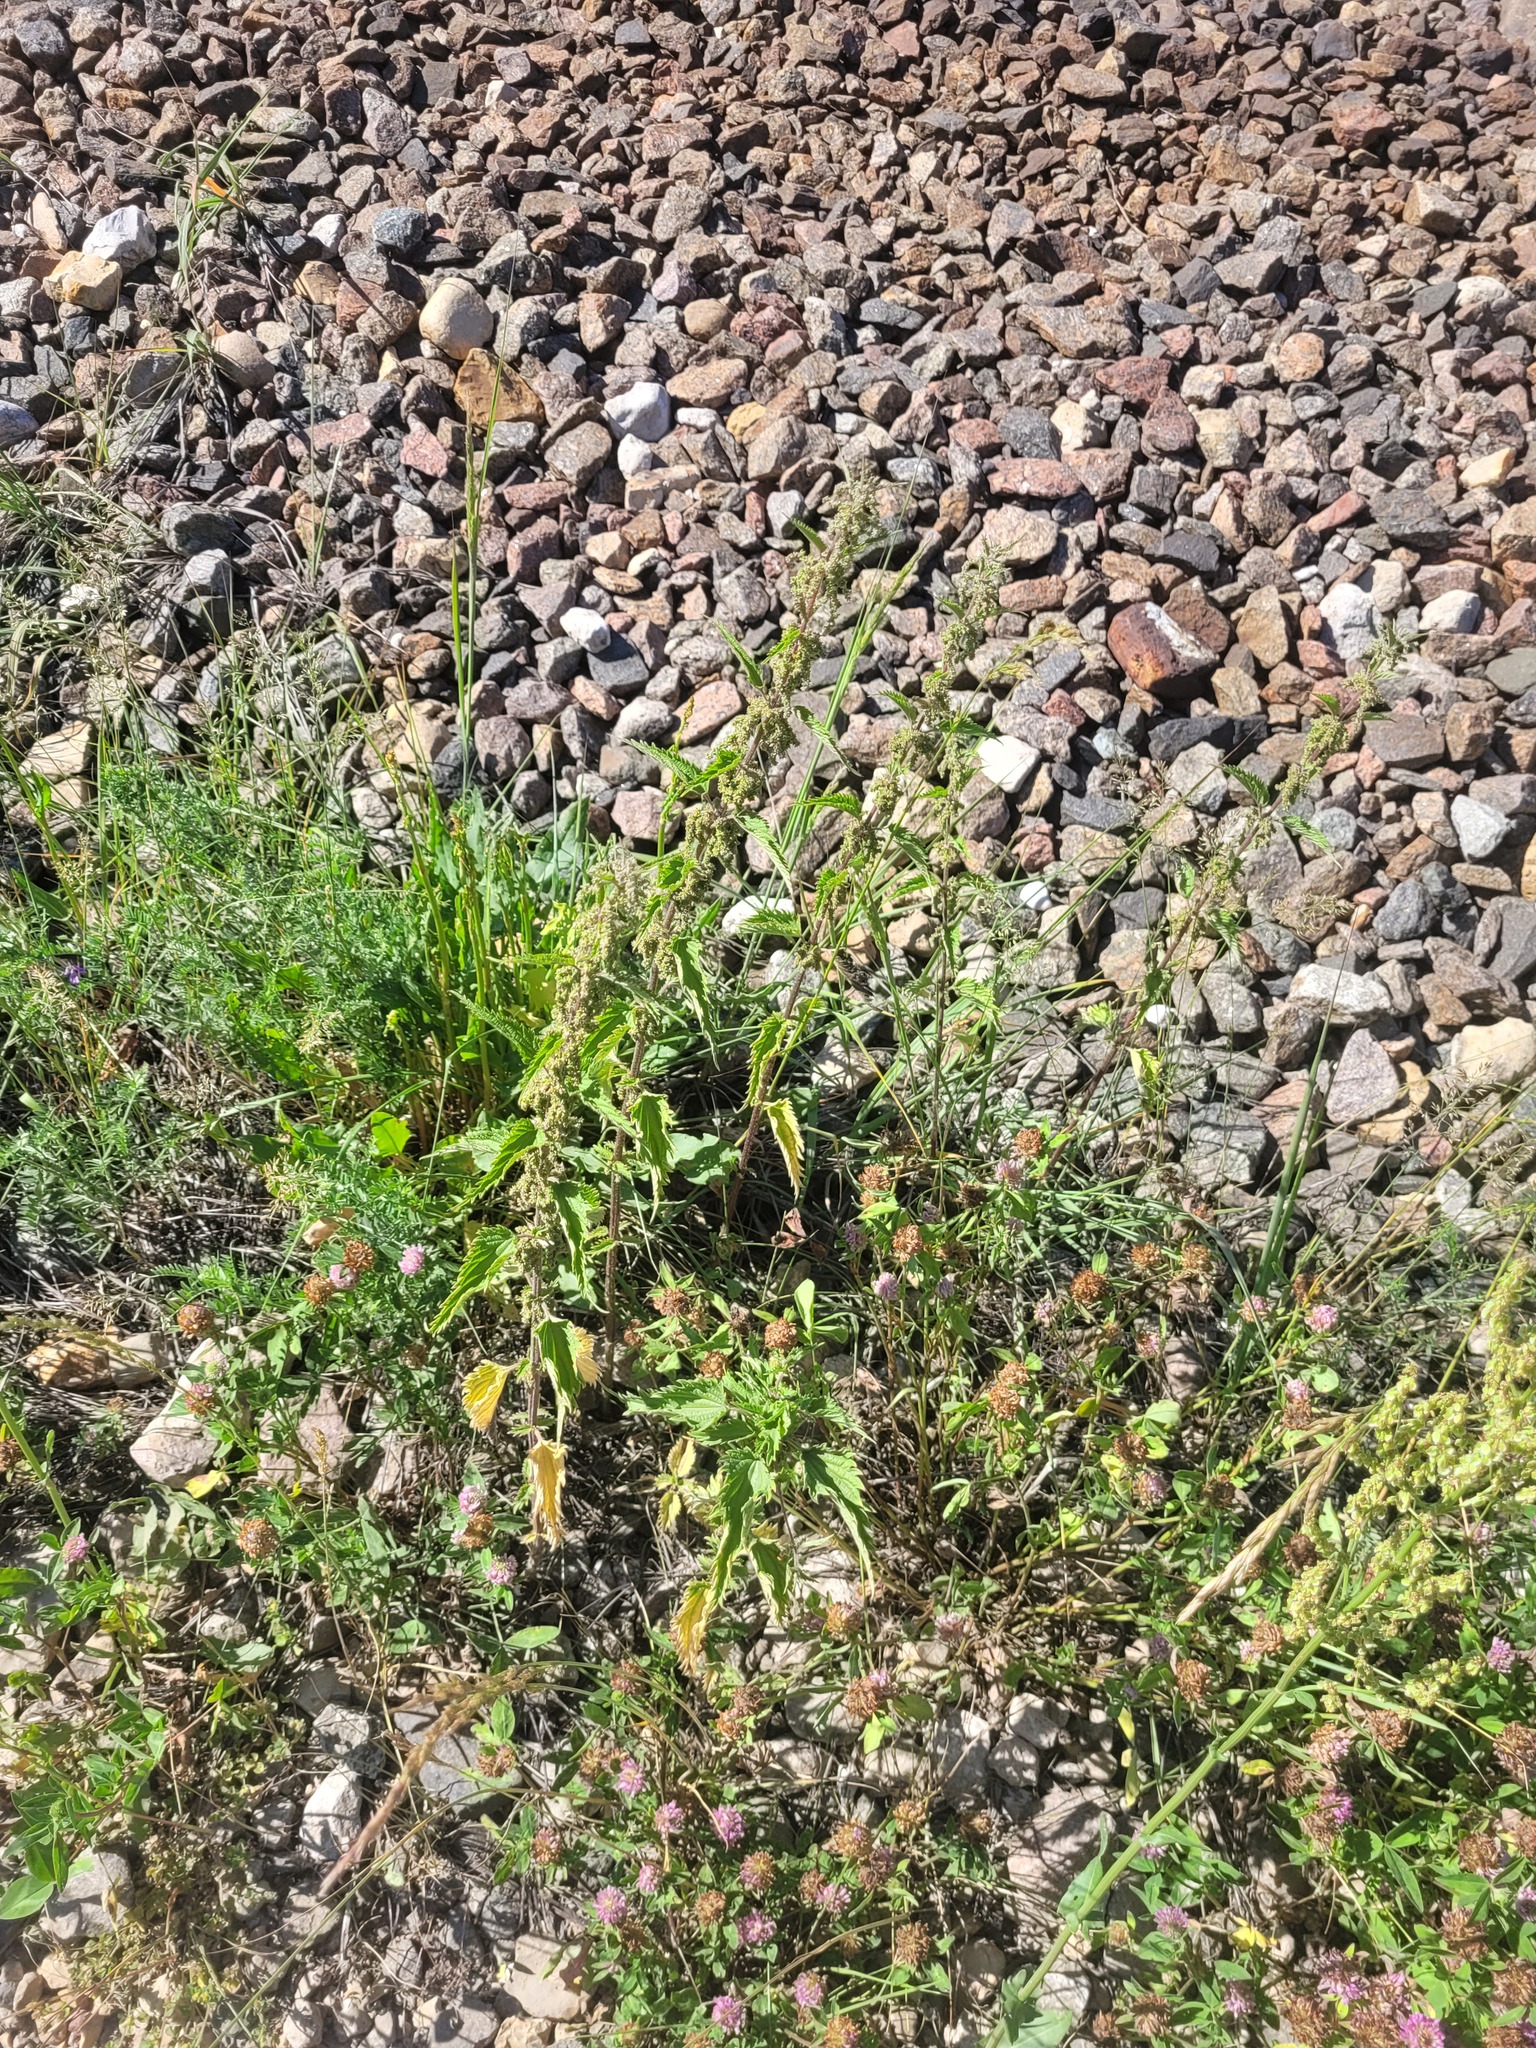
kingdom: Plantae
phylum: Tracheophyta
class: Magnoliopsida
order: Rosales
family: Urticaceae
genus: Urtica
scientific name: Urtica dioica
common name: Common nettle
